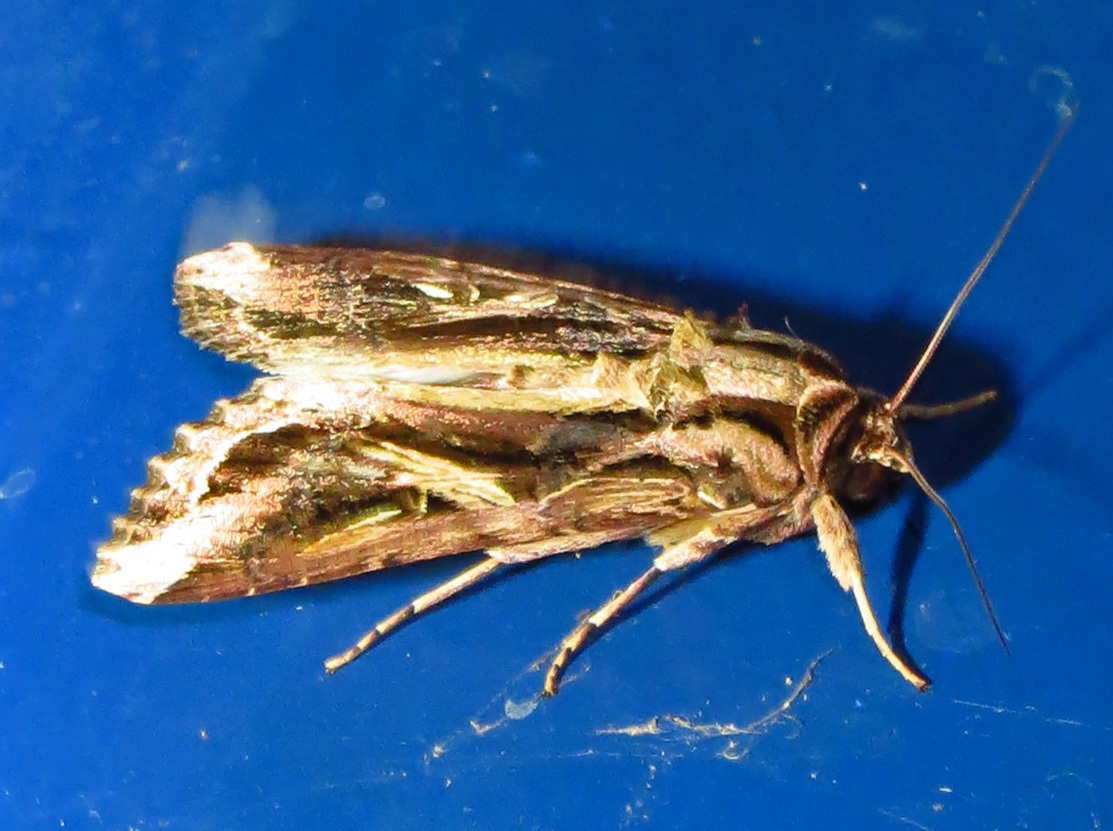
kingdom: Animalia
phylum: Arthropoda
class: Insecta
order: Lepidoptera
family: Noctuidae
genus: Spodoptera
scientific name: Spodoptera dolichos
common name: Sweetpotato armyworm
